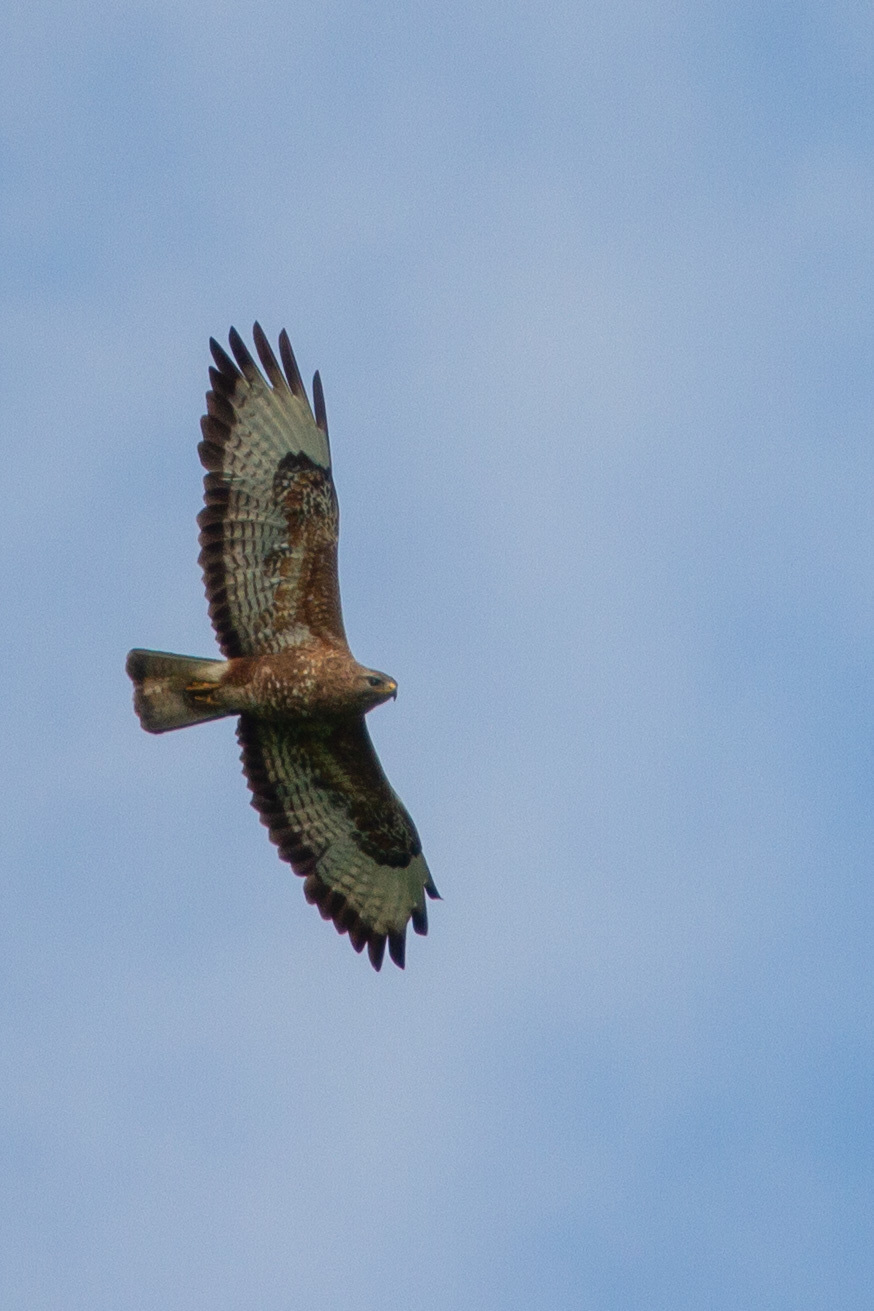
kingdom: Animalia
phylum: Chordata
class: Aves
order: Accipitriformes
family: Accipitridae
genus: Buteo
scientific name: Buteo buteo
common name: Common buzzard
